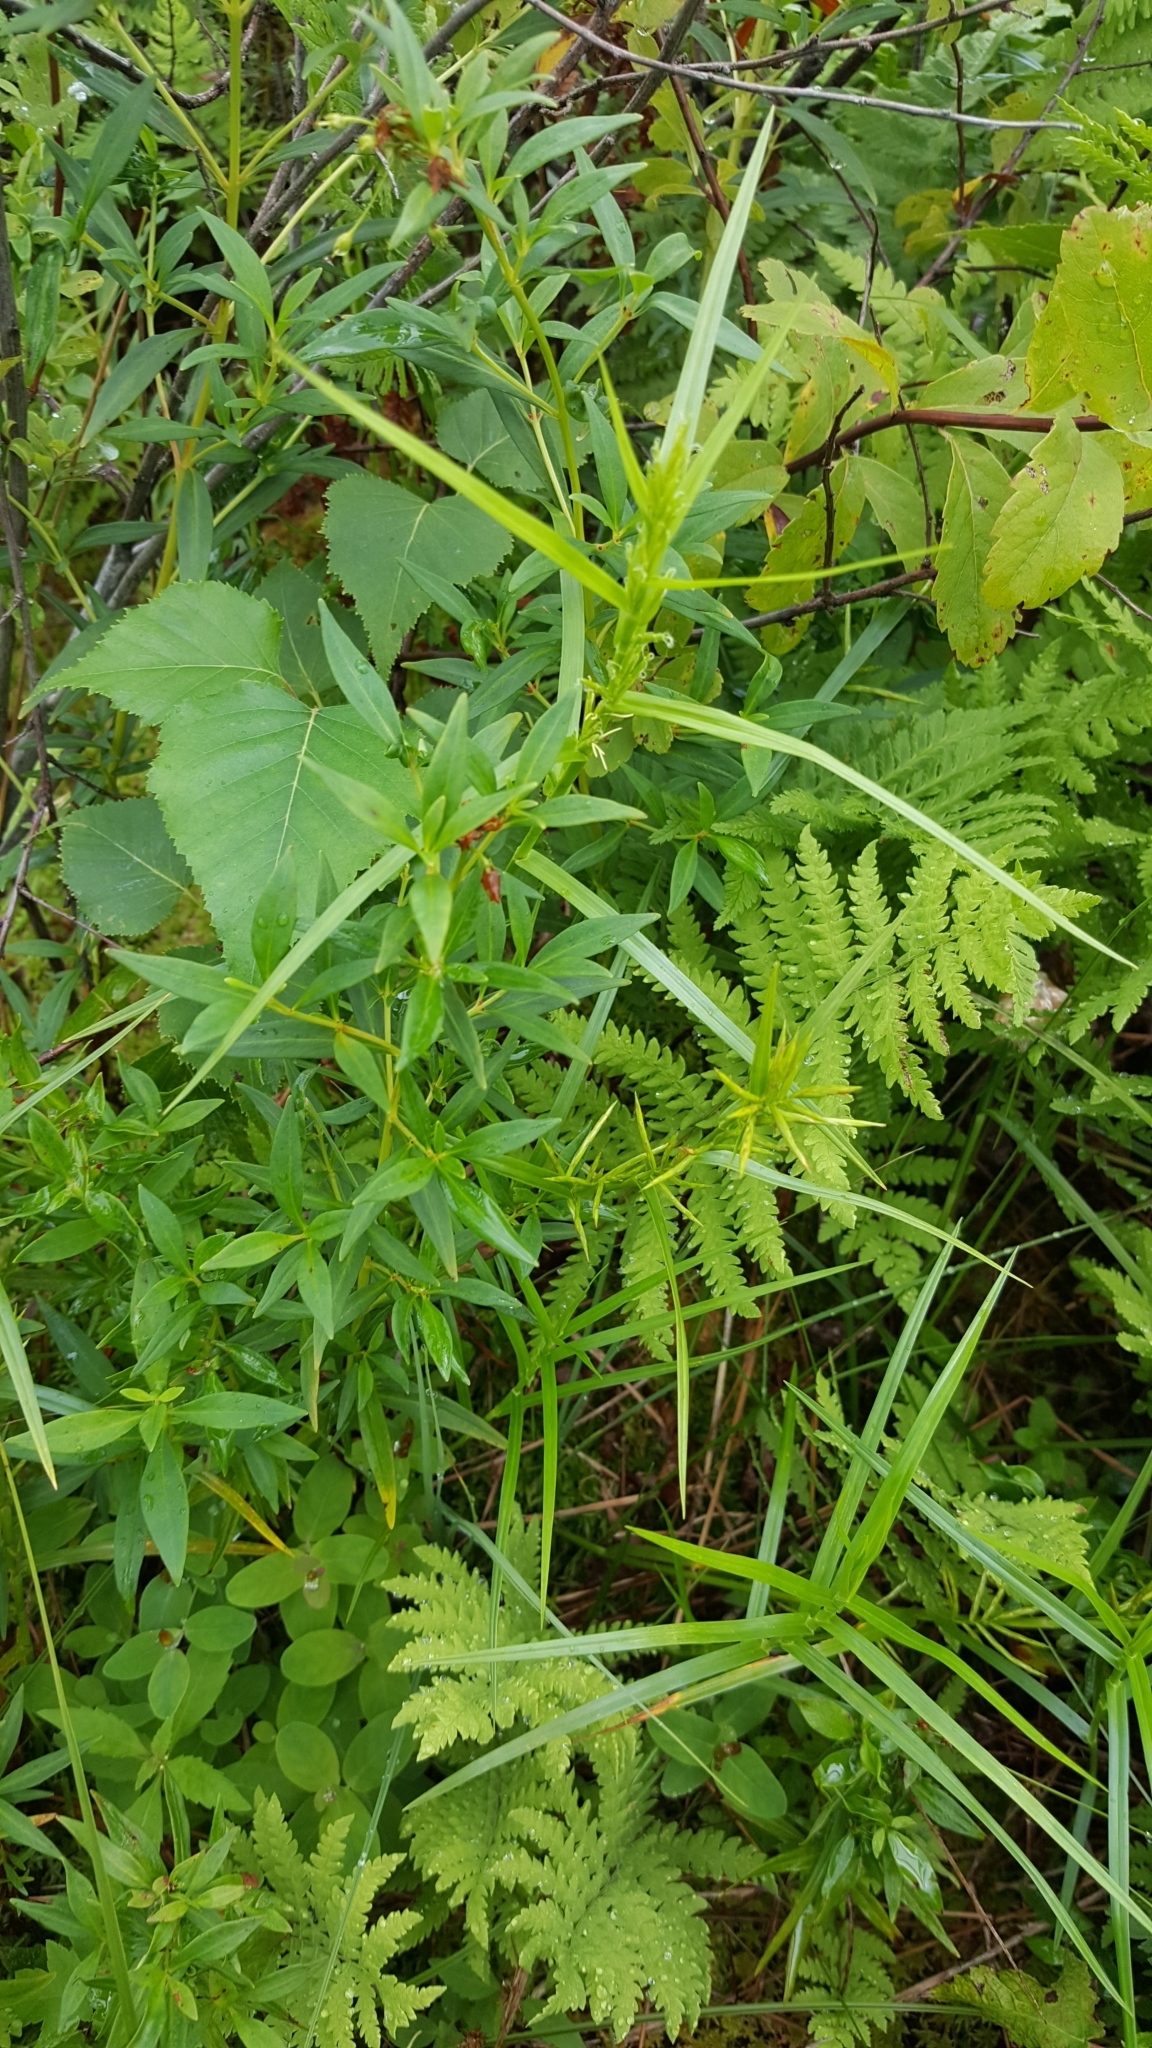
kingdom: Plantae
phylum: Tracheophyta
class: Liliopsida
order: Poales
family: Cyperaceae
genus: Dulichium
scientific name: Dulichium arundinaceum
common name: Three-way sedge
